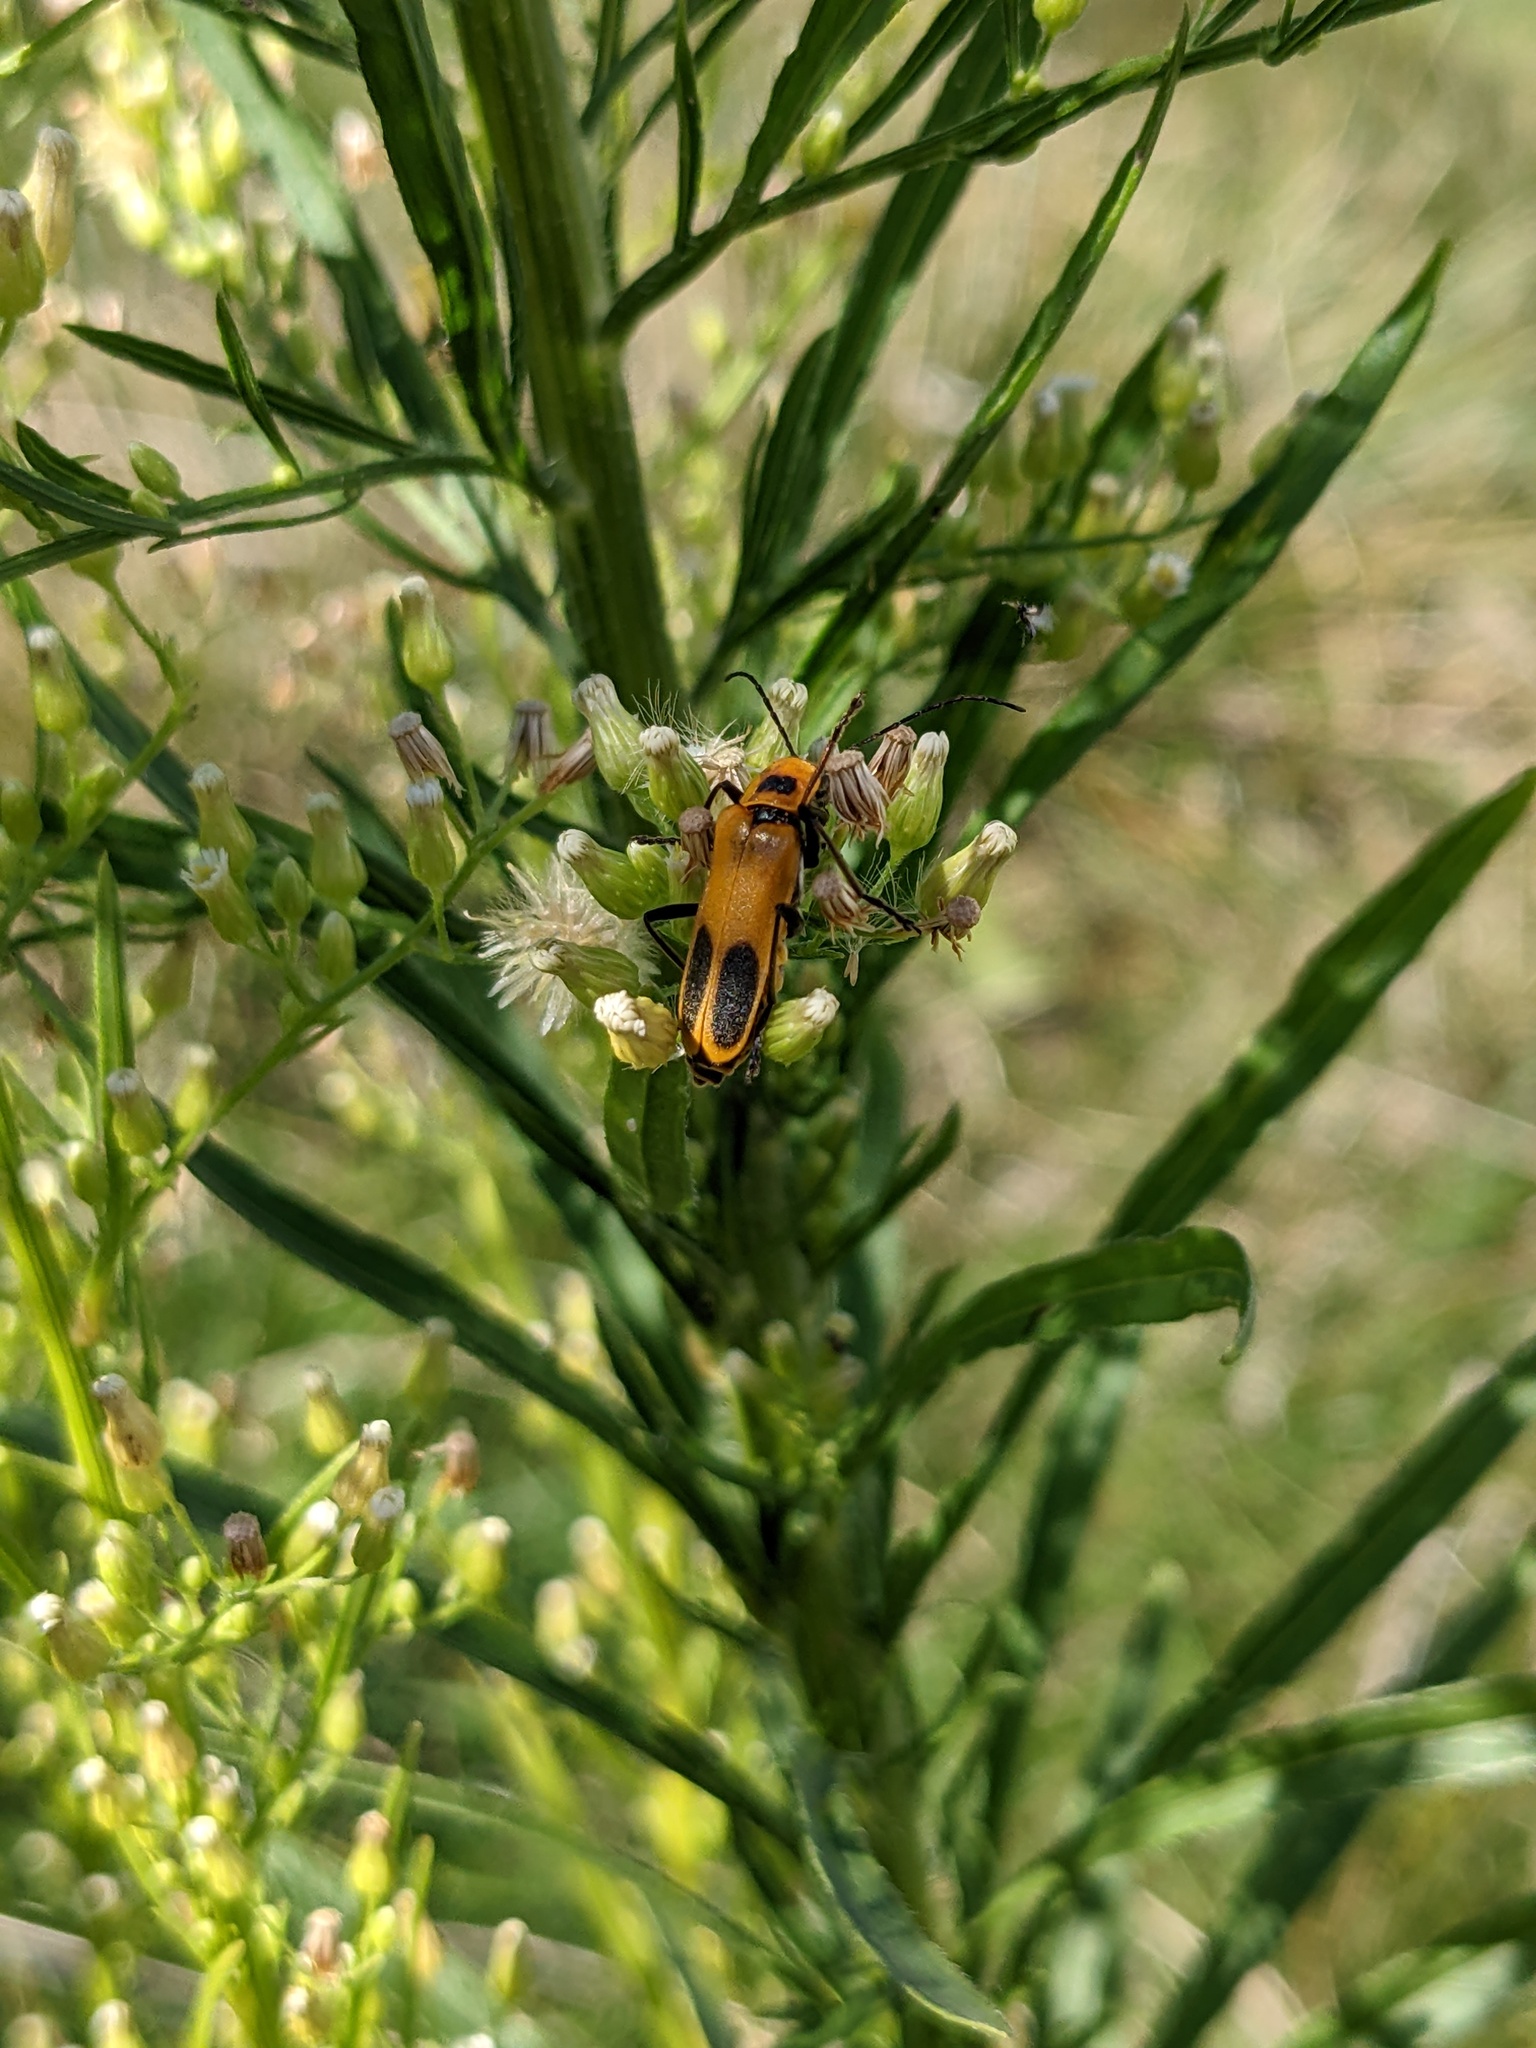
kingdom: Animalia
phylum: Arthropoda
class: Insecta
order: Coleoptera
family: Cantharidae
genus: Chauliognathus
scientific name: Chauliognathus pensylvanicus
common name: Goldenrod soldier beetle
